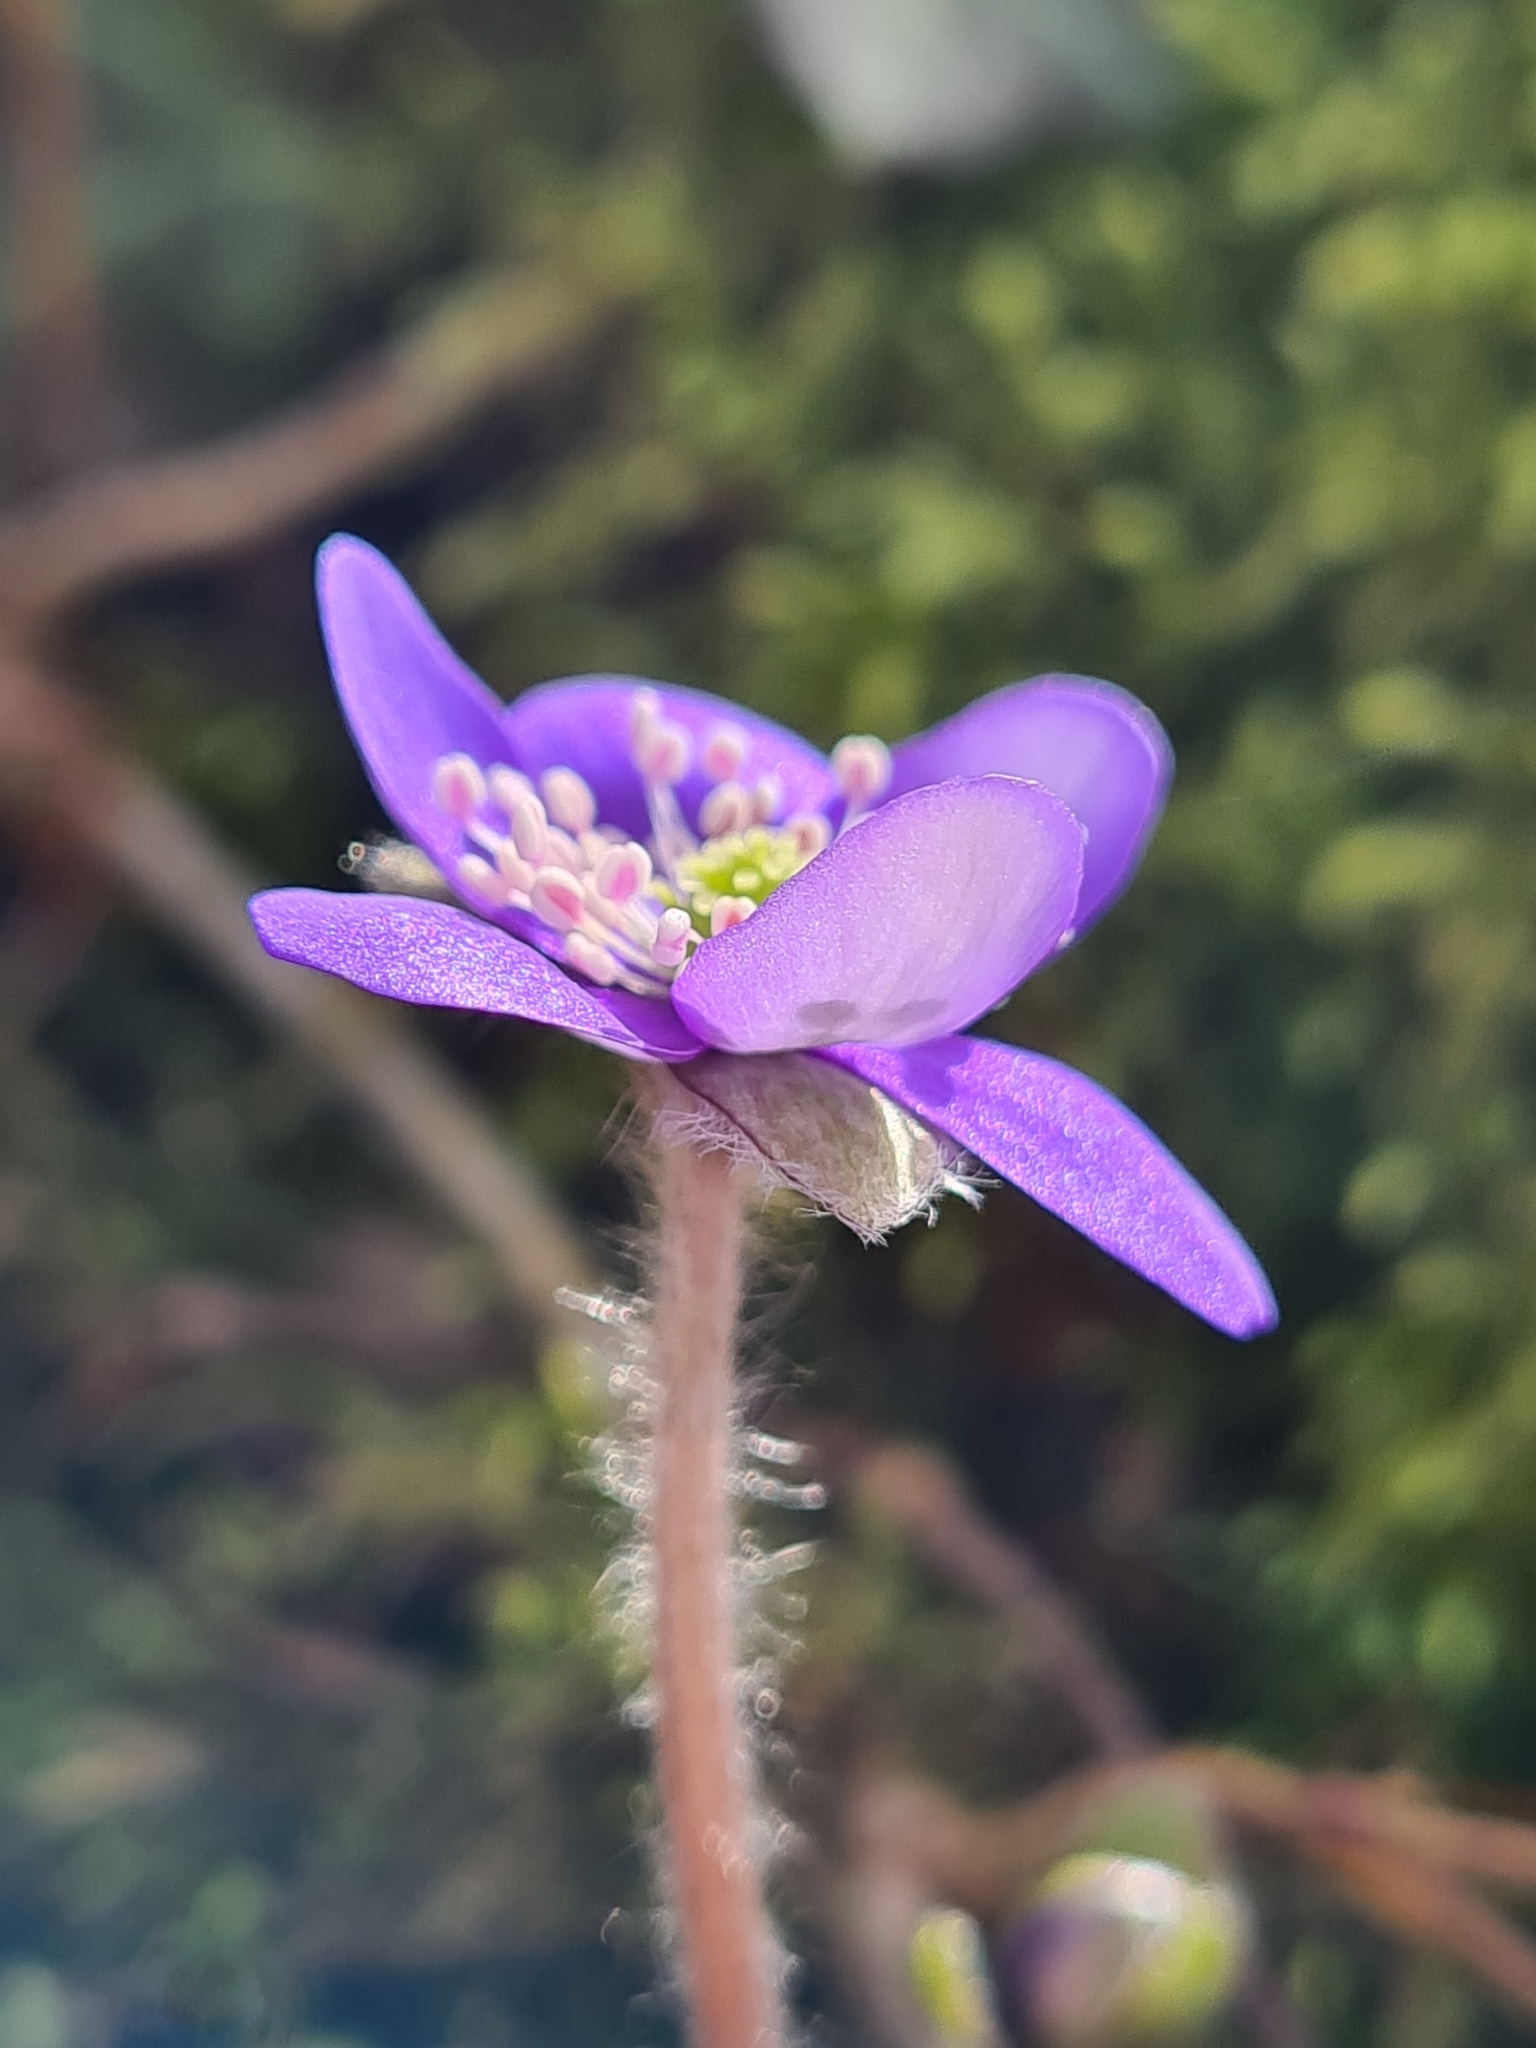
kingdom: Plantae
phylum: Tracheophyta
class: Magnoliopsida
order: Ranunculales
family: Ranunculaceae
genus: Hepatica
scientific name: Hepatica nobilis
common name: Liverleaf
